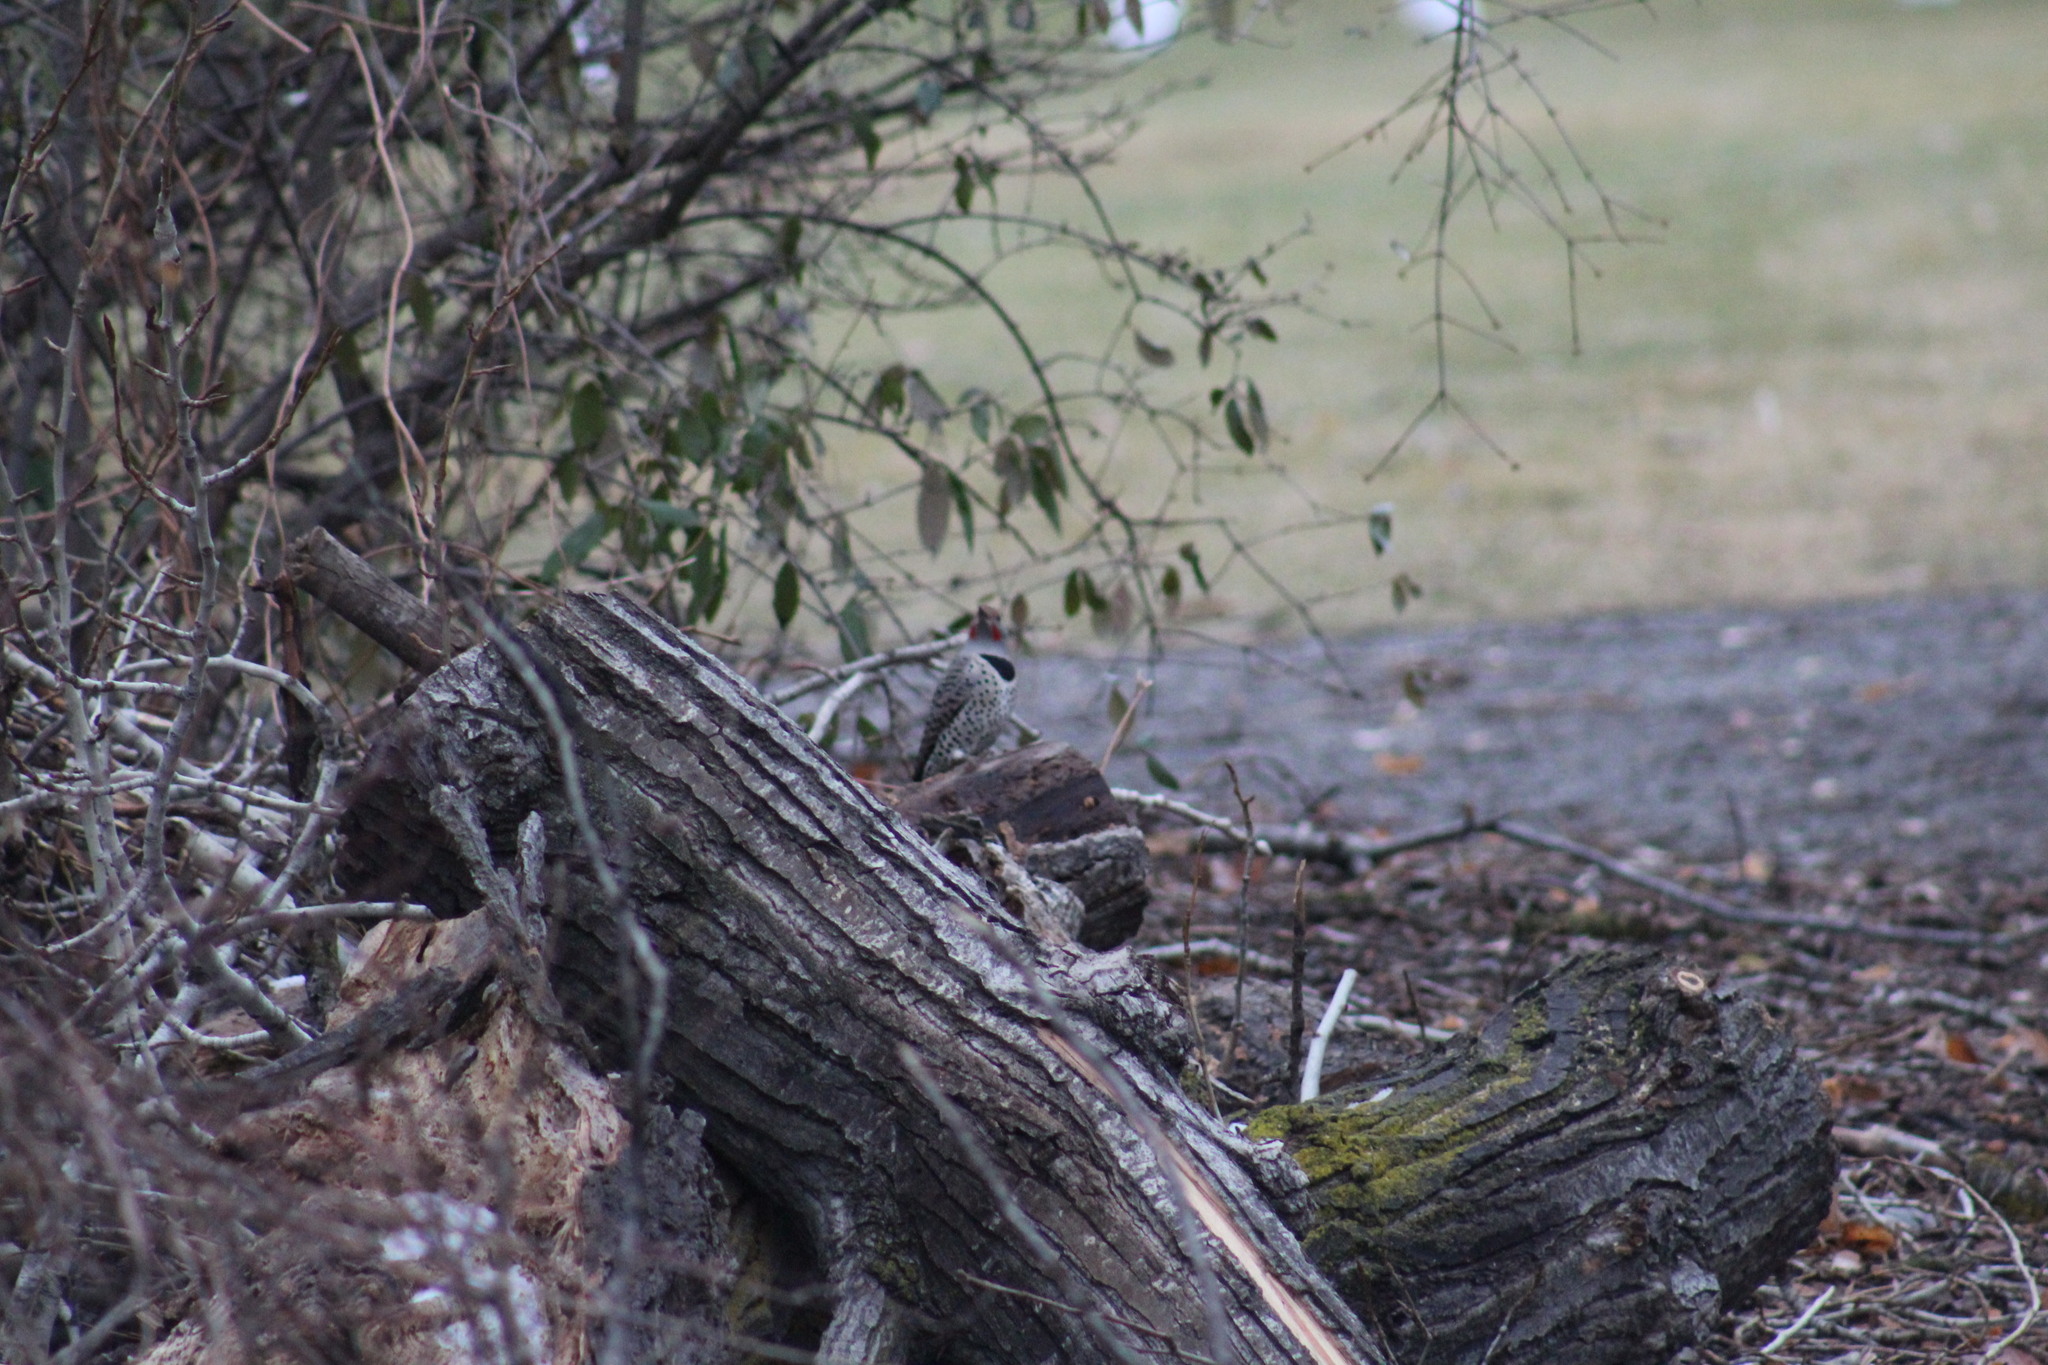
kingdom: Animalia
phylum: Chordata
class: Aves
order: Piciformes
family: Picidae
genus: Colaptes
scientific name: Colaptes auratus
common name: Northern flicker
